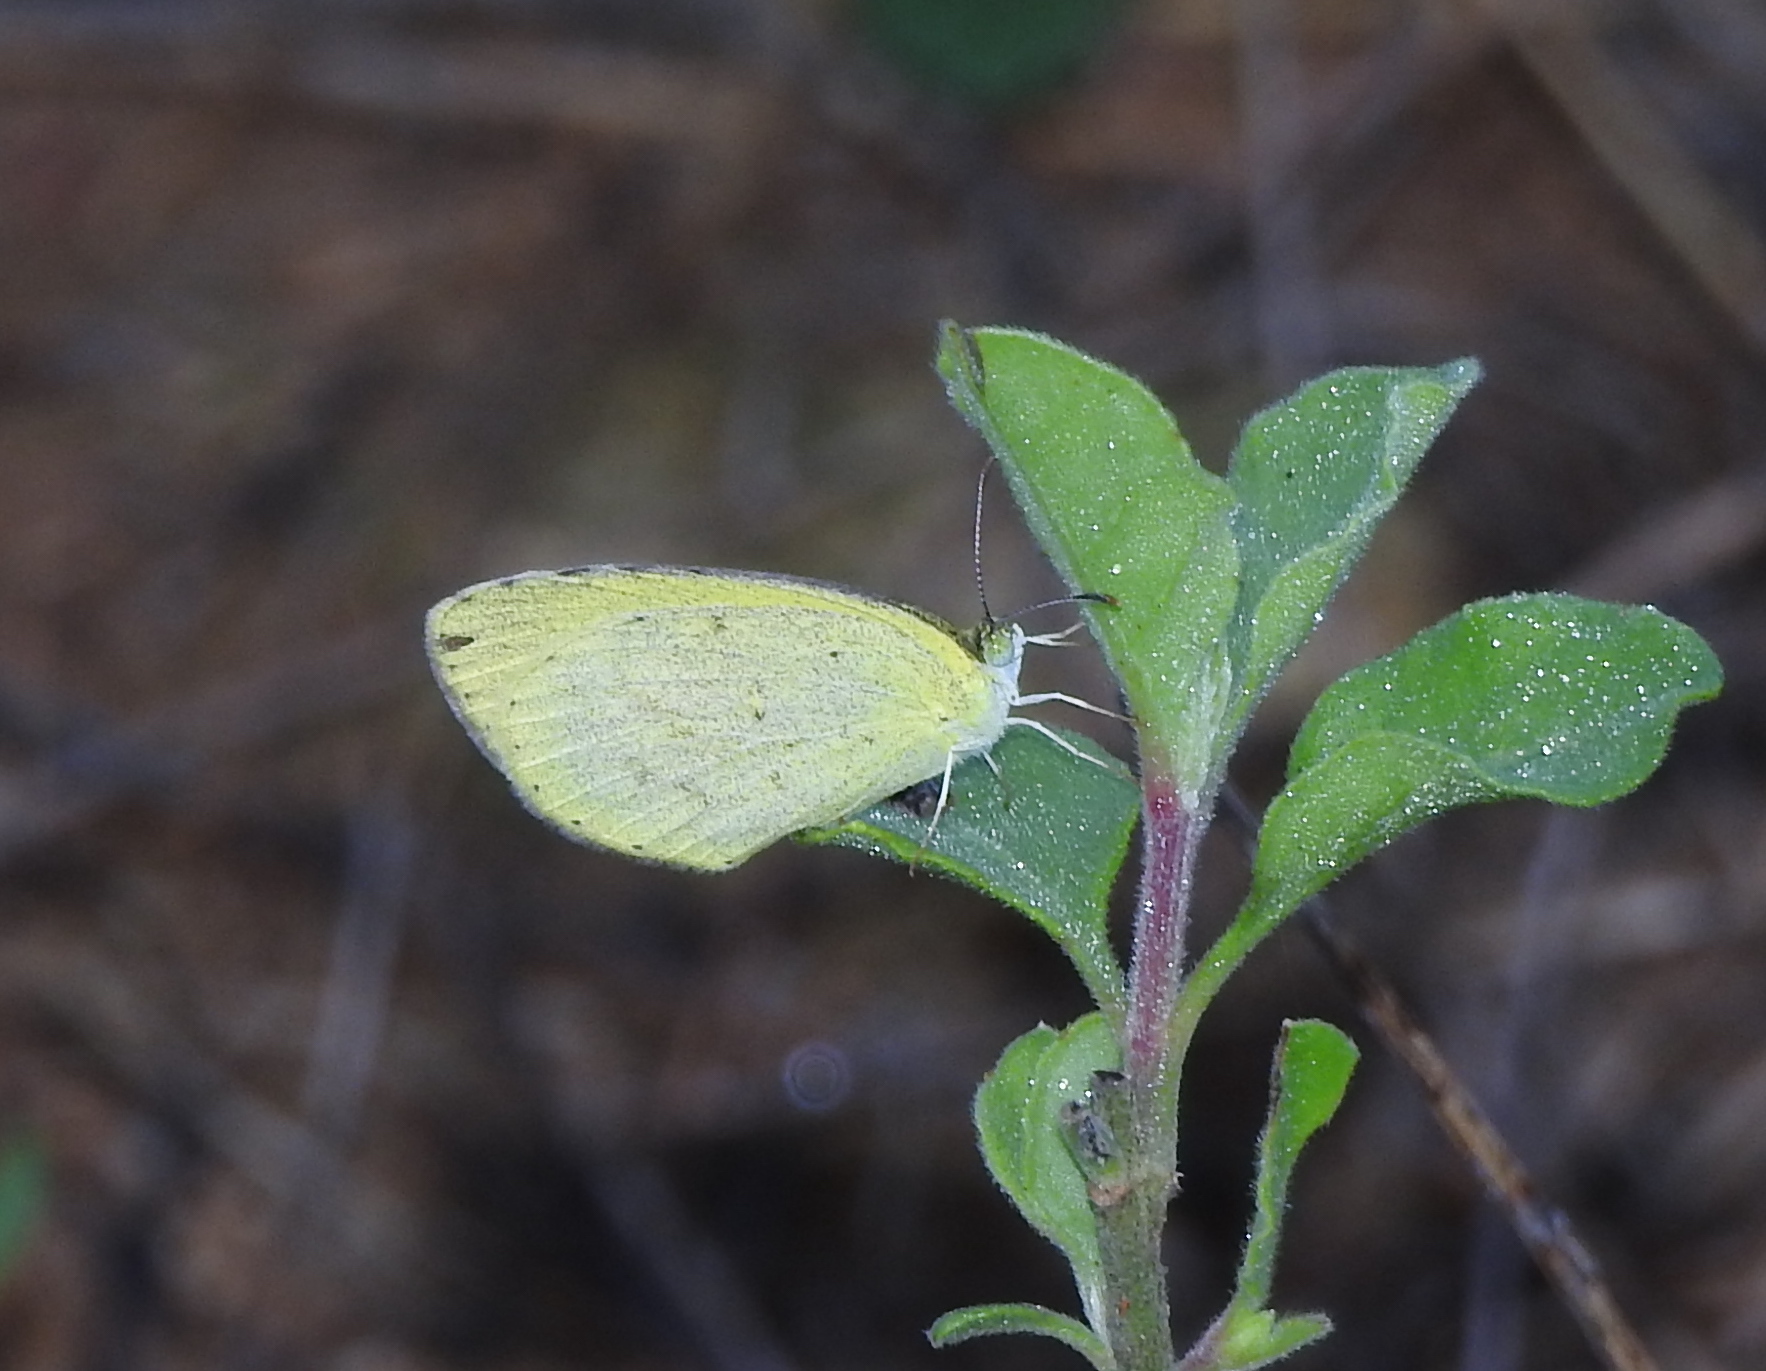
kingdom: Animalia
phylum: Arthropoda
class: Insecta
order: Lepidoptera
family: Pieridae
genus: Eurema
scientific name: Eurema brigitta
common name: Small grass yellow
